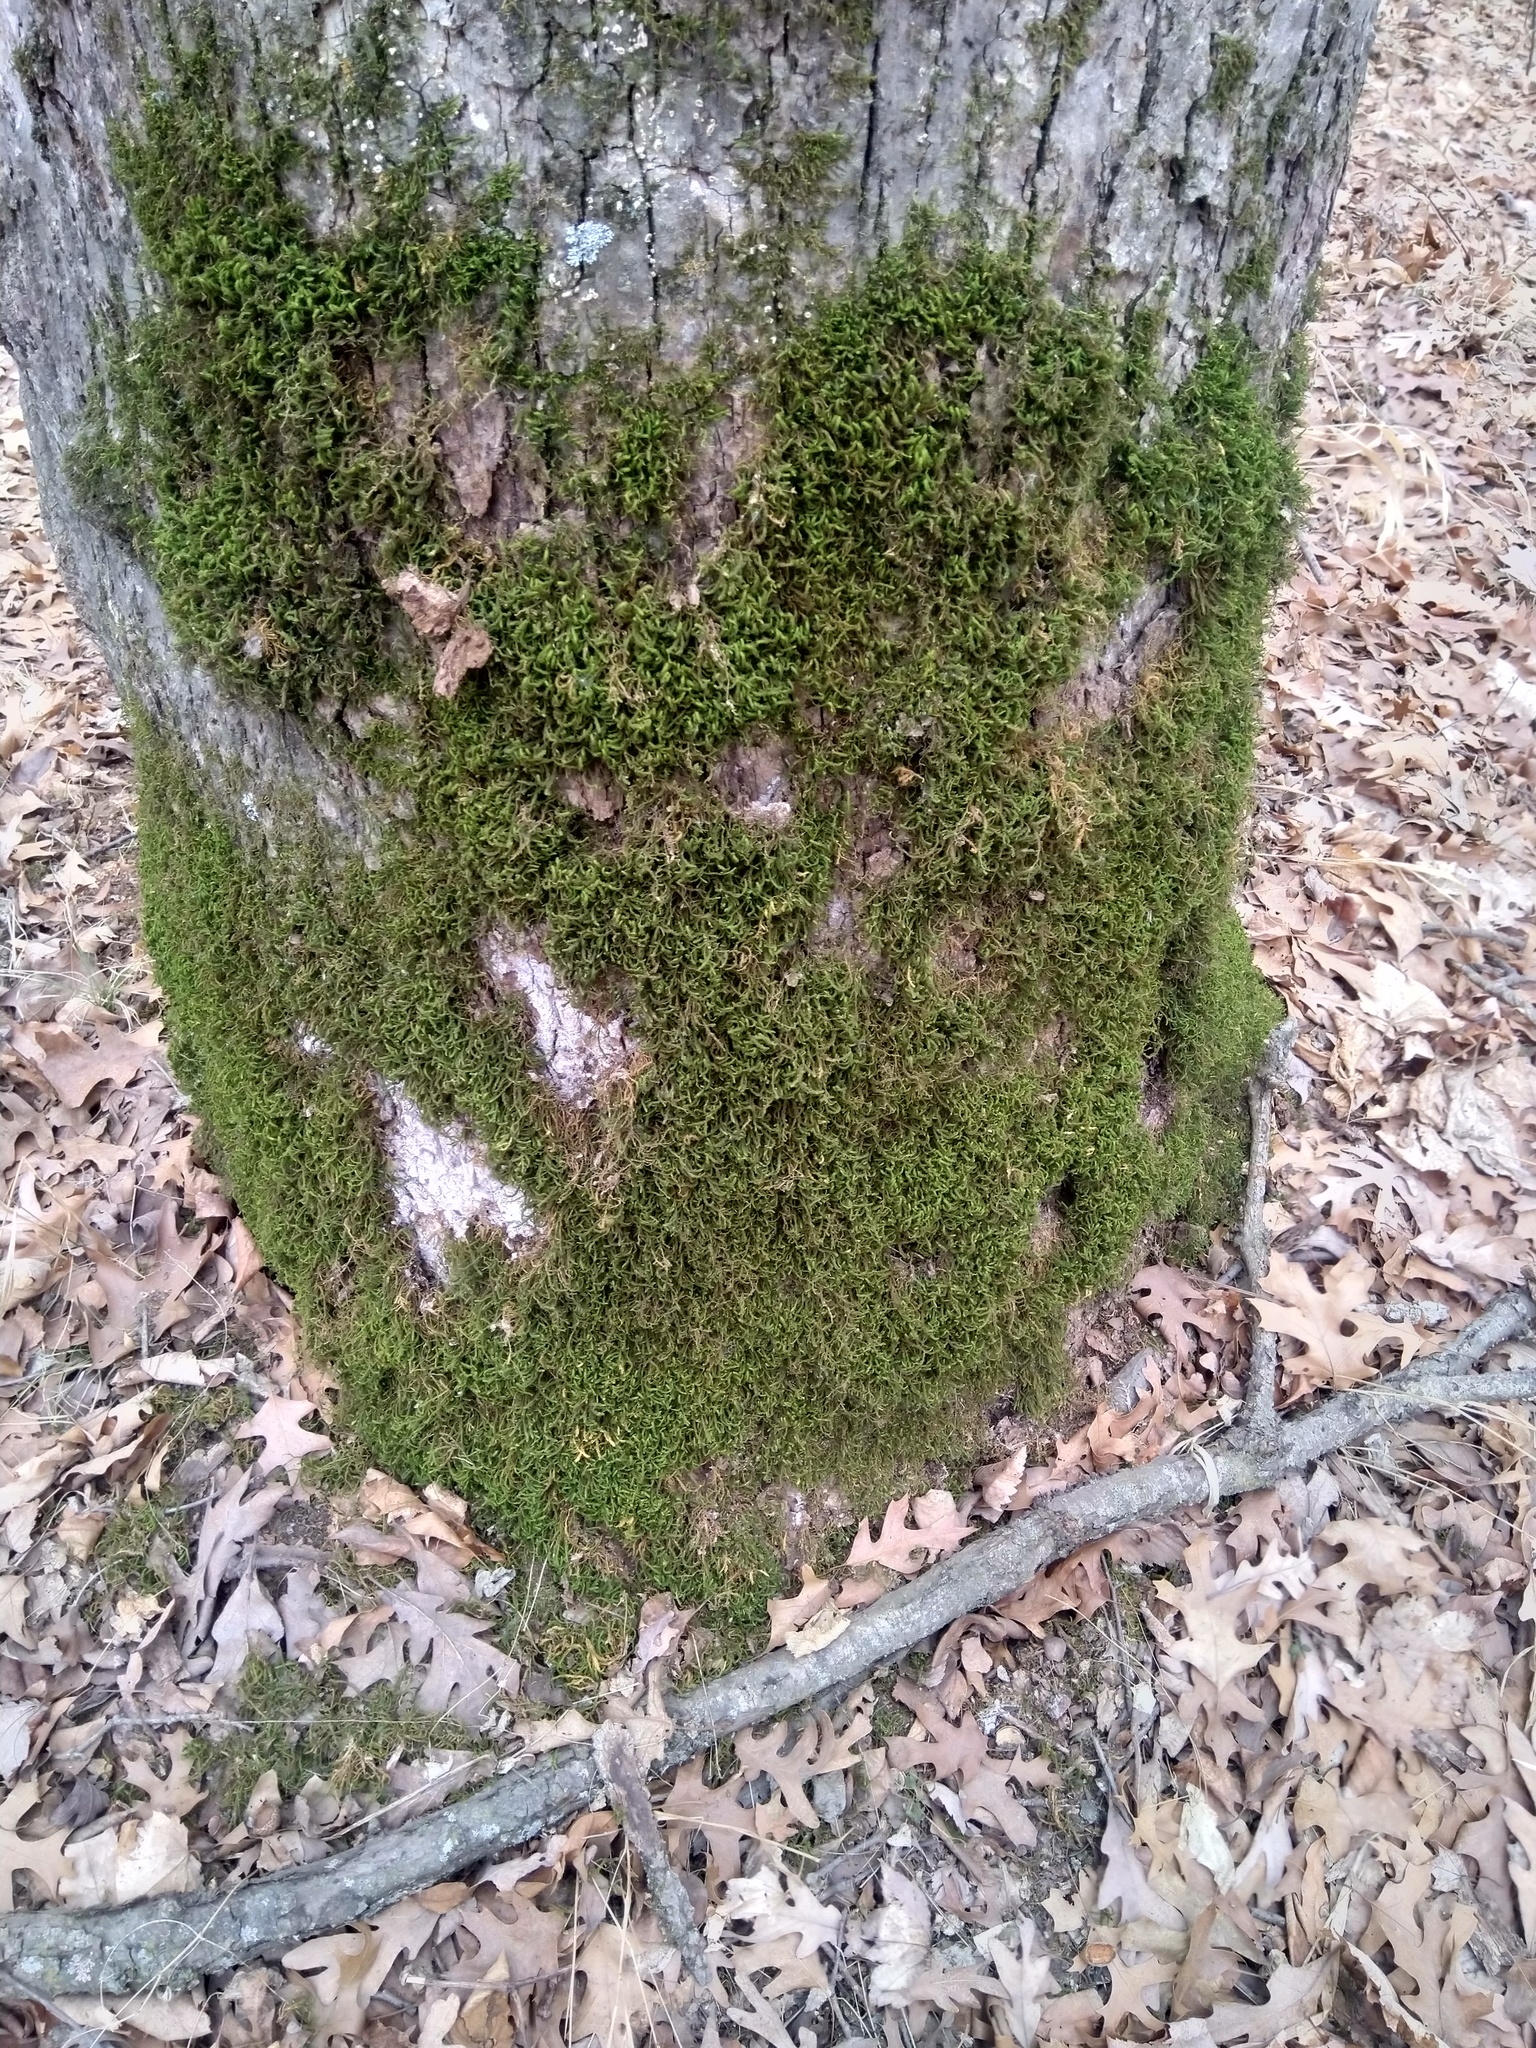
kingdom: Plantae
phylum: Bryophyta
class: Bryopsida
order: Hypnales
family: Anomodontaceae
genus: Anomodon
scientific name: Anomodon minor
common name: Blunt-leaved anomodon
